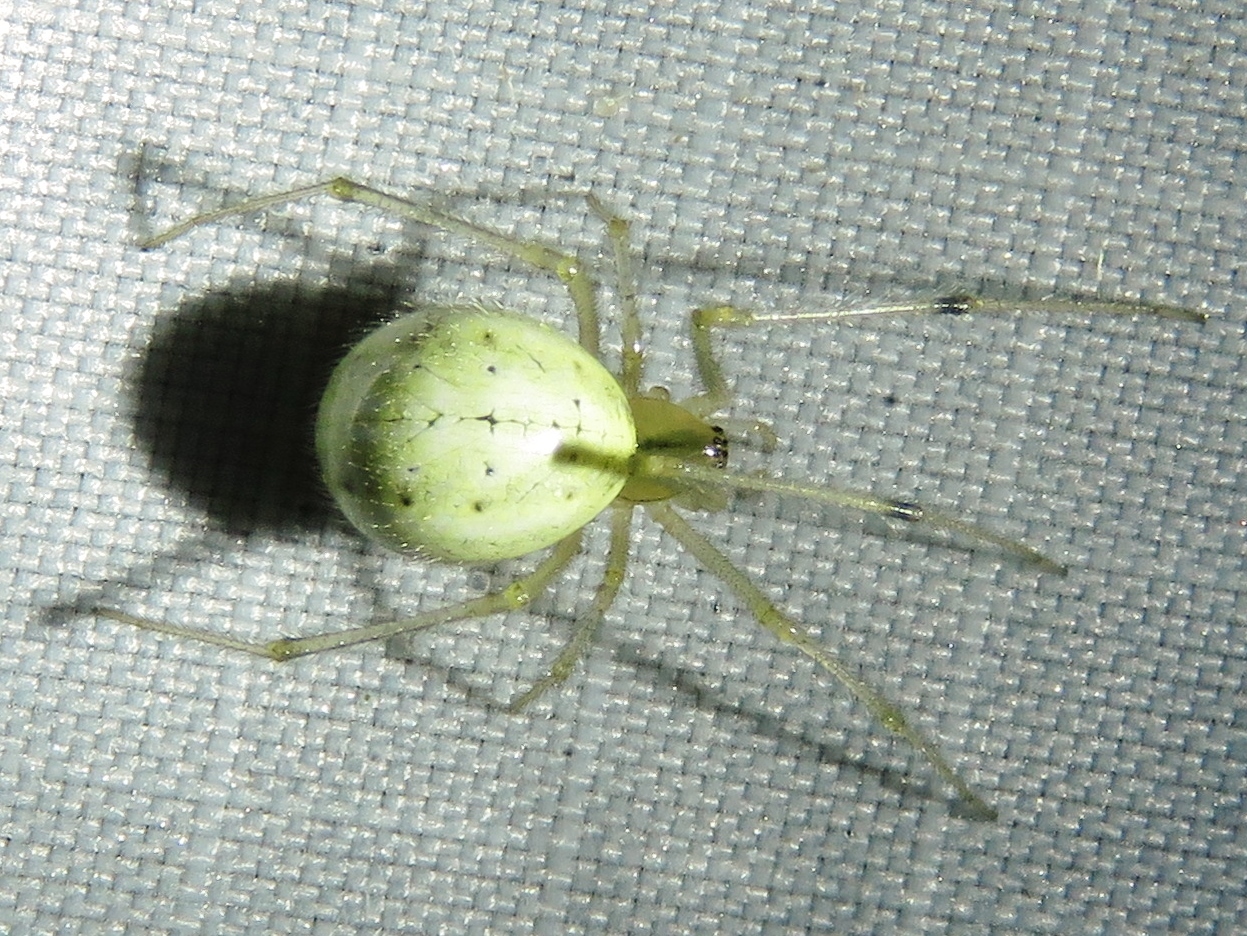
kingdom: Animalia
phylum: Arthropoda
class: Arachnida
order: Araneae
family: Theridiidae
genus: Enoplognatha
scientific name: Enoplognatha ovata
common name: Common candy-striped spider
